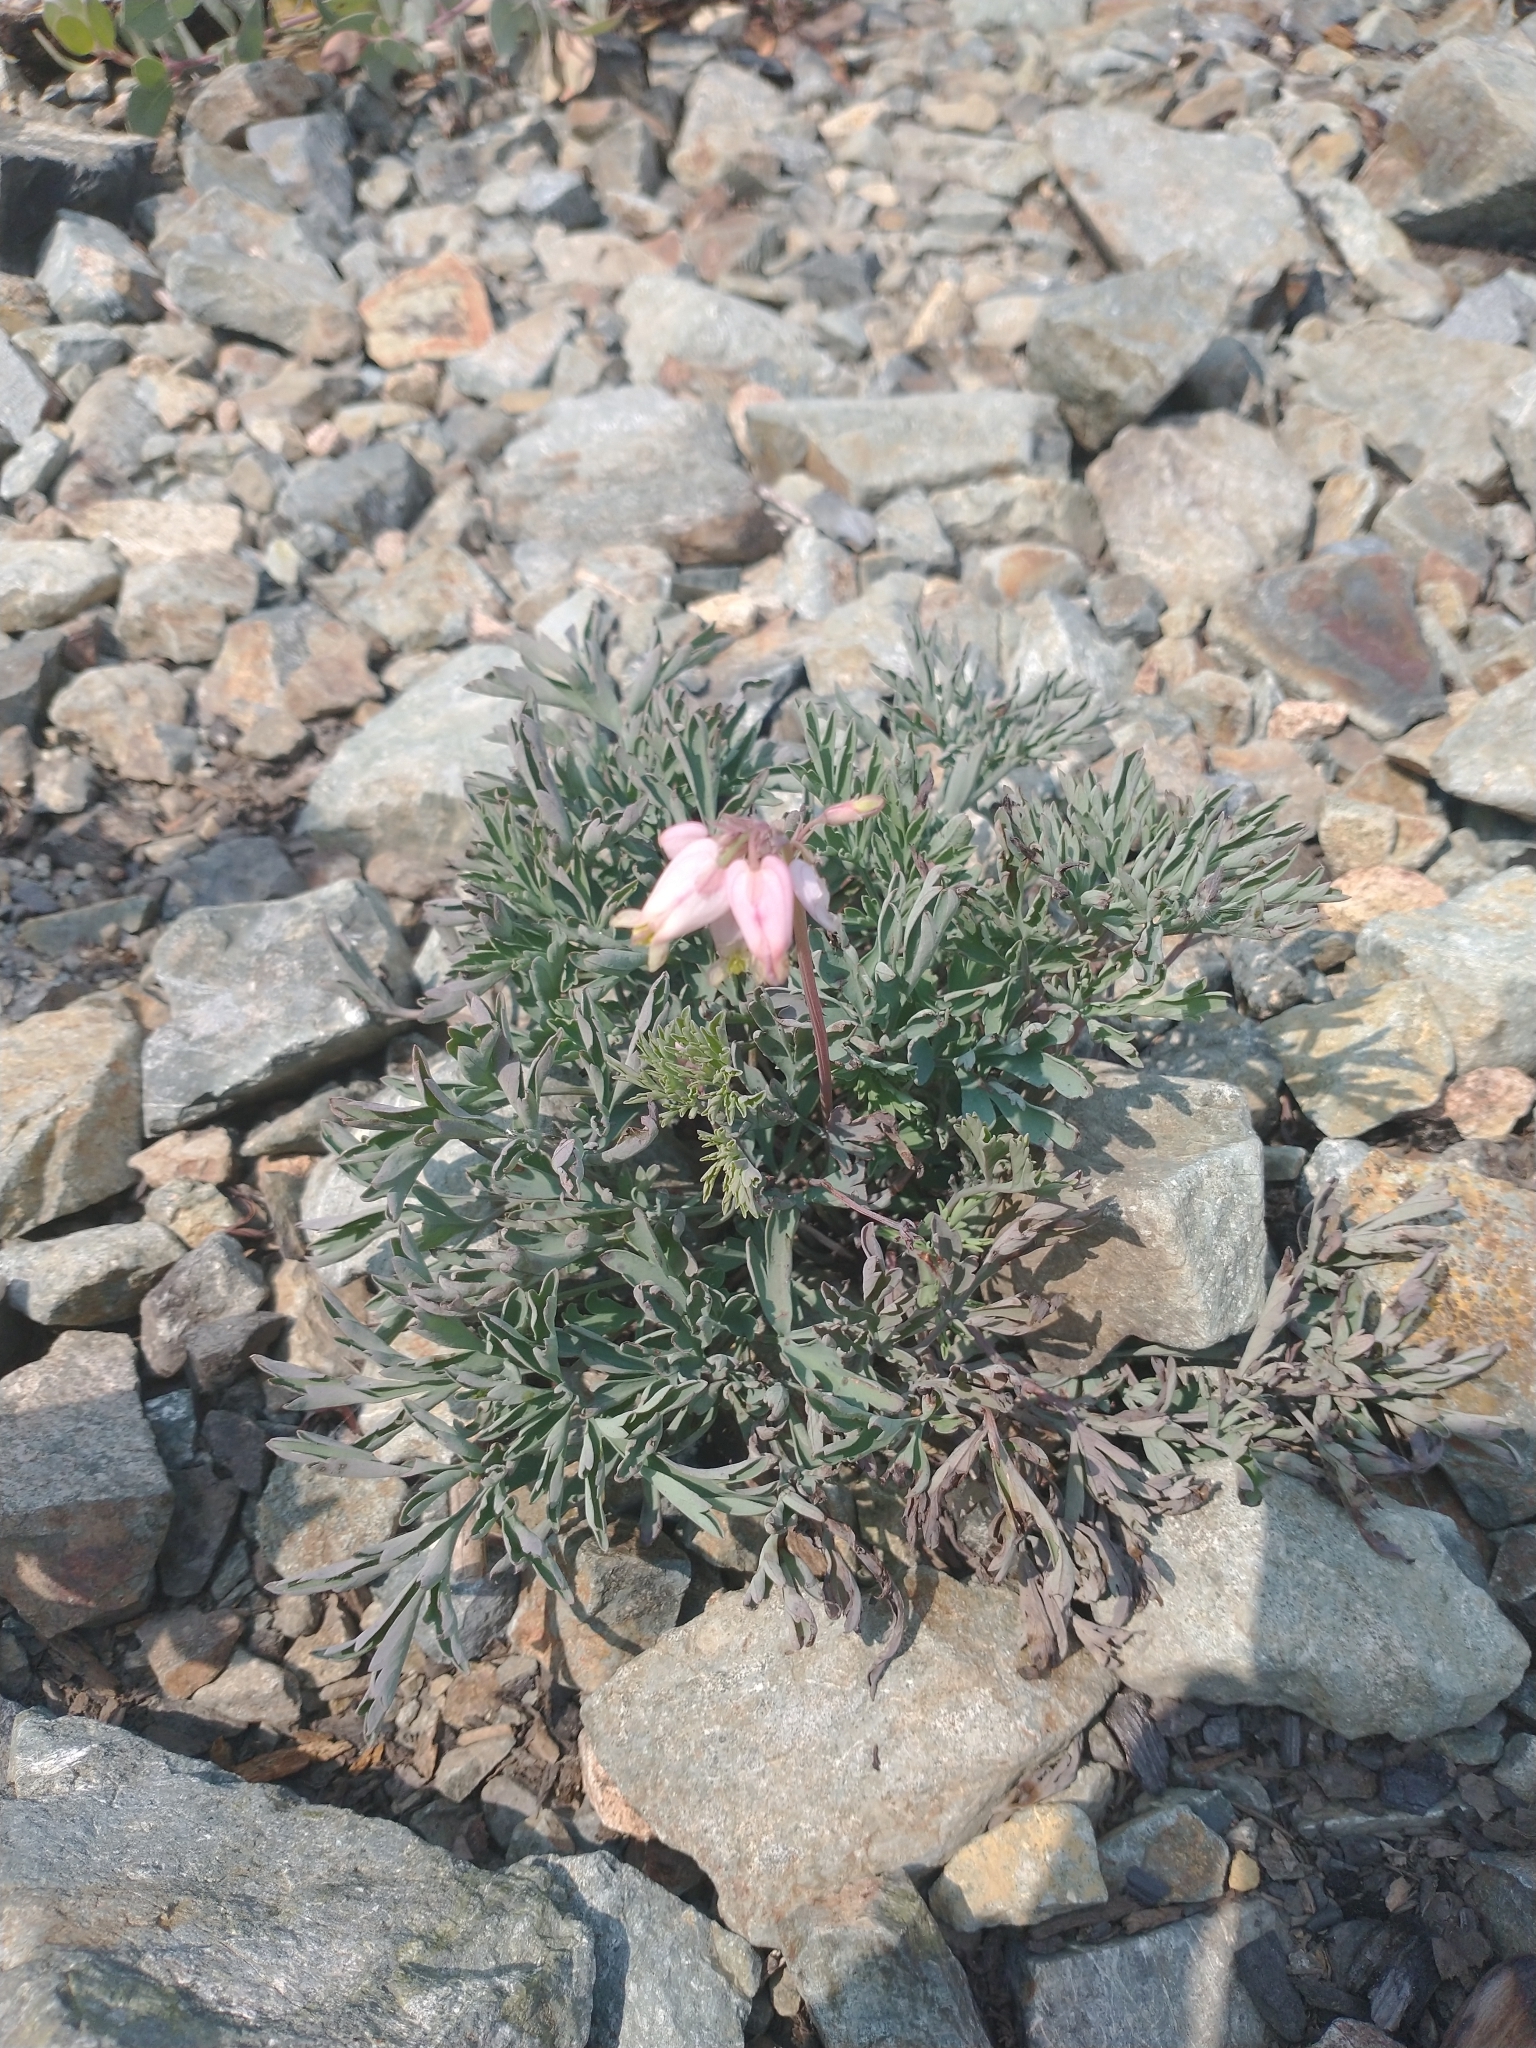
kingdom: Plantae
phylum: Tracheophyta
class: Magnoliopsida
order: Ranunculales
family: Papaveraceae
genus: Dicentra
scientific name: Dicentra formosa
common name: Bleeding-heart
